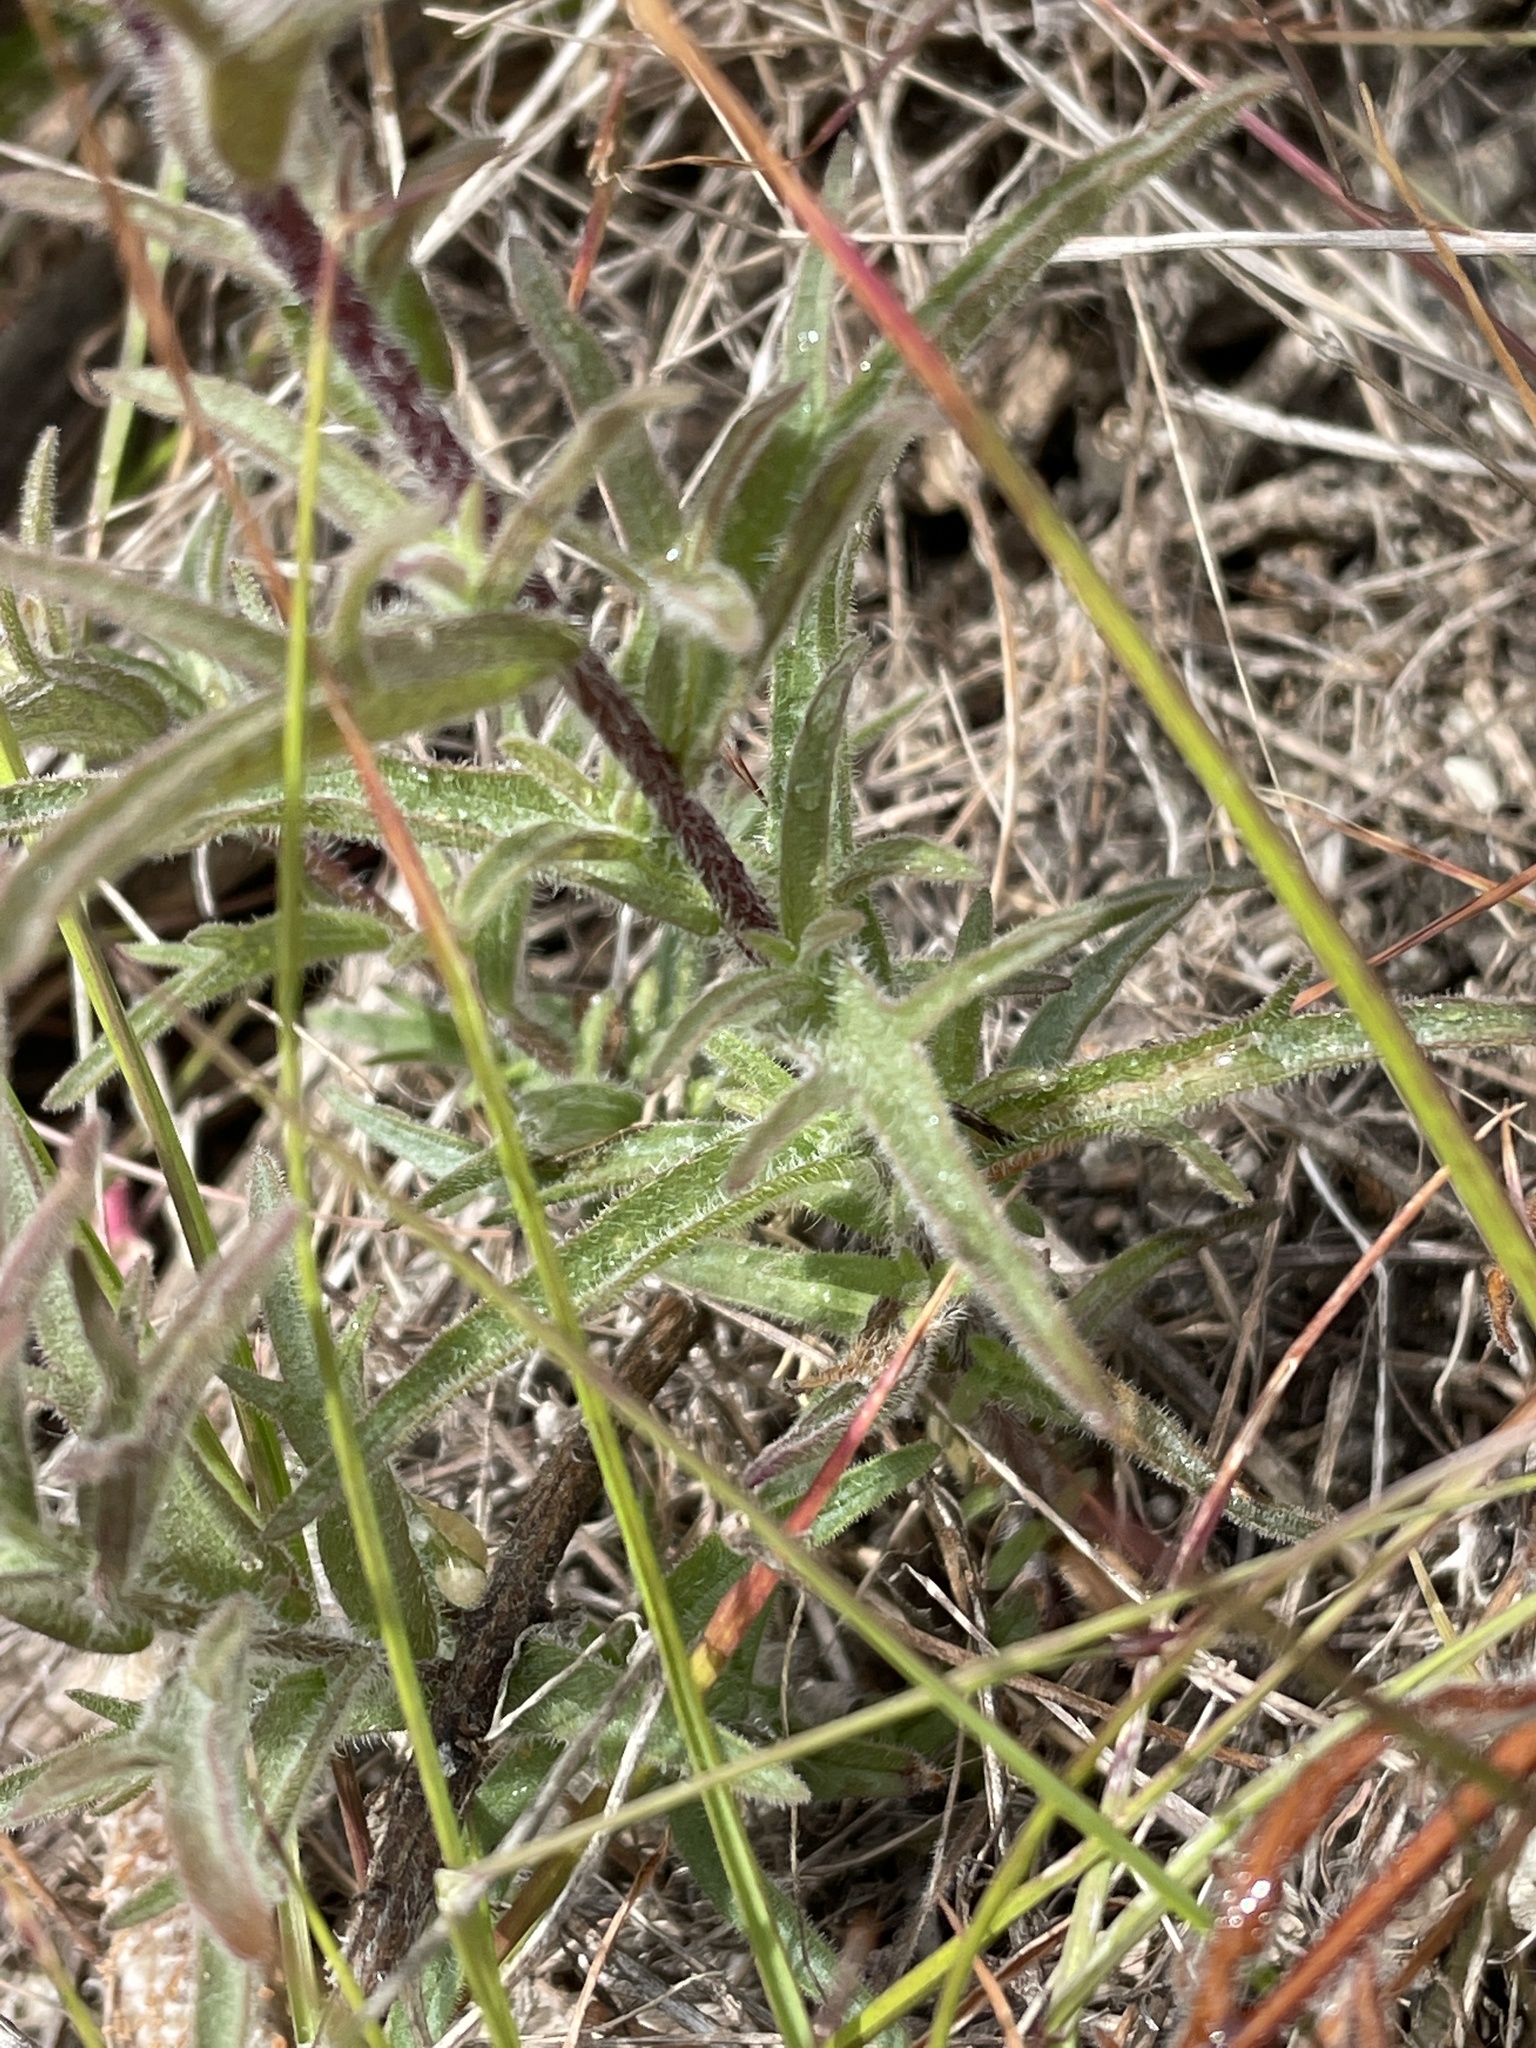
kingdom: Plantae
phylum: Tracheophyta
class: Magnoliopsida
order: Lamiales
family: Orobanchaceae
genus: Castilleja
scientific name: Castilleja affinis
